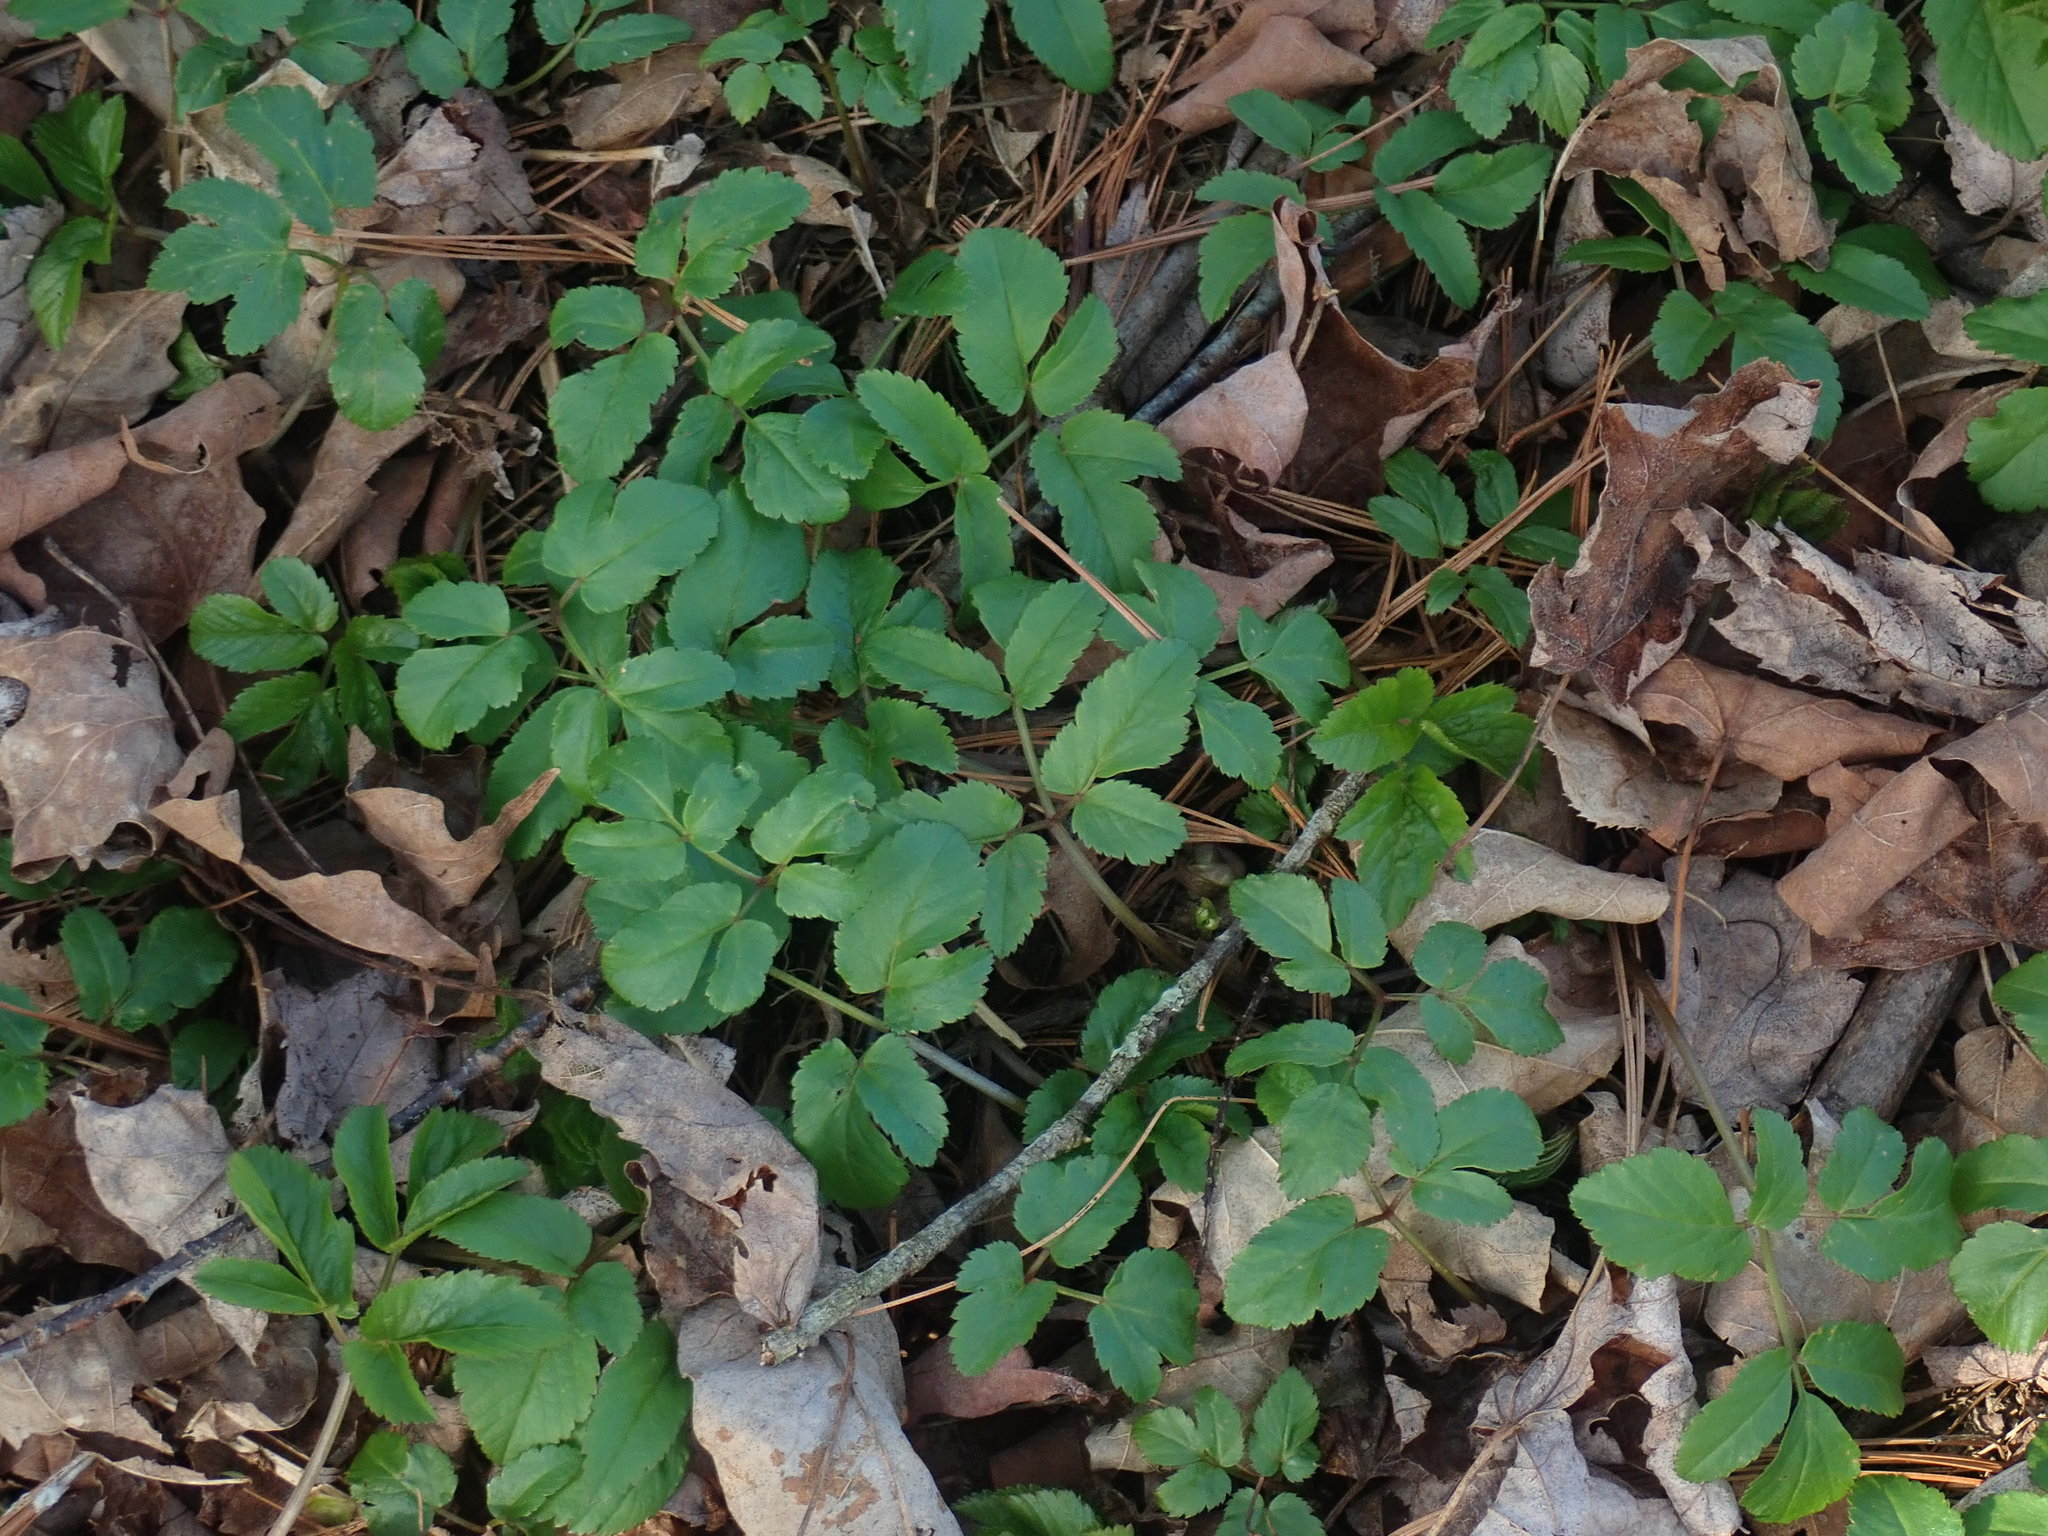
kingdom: Plantae
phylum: Tracheophyta
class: Magnoliopsida
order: Apiales
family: Apiaceae
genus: Aegopodium
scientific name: Aegopodium podagraria
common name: Ground-elder
